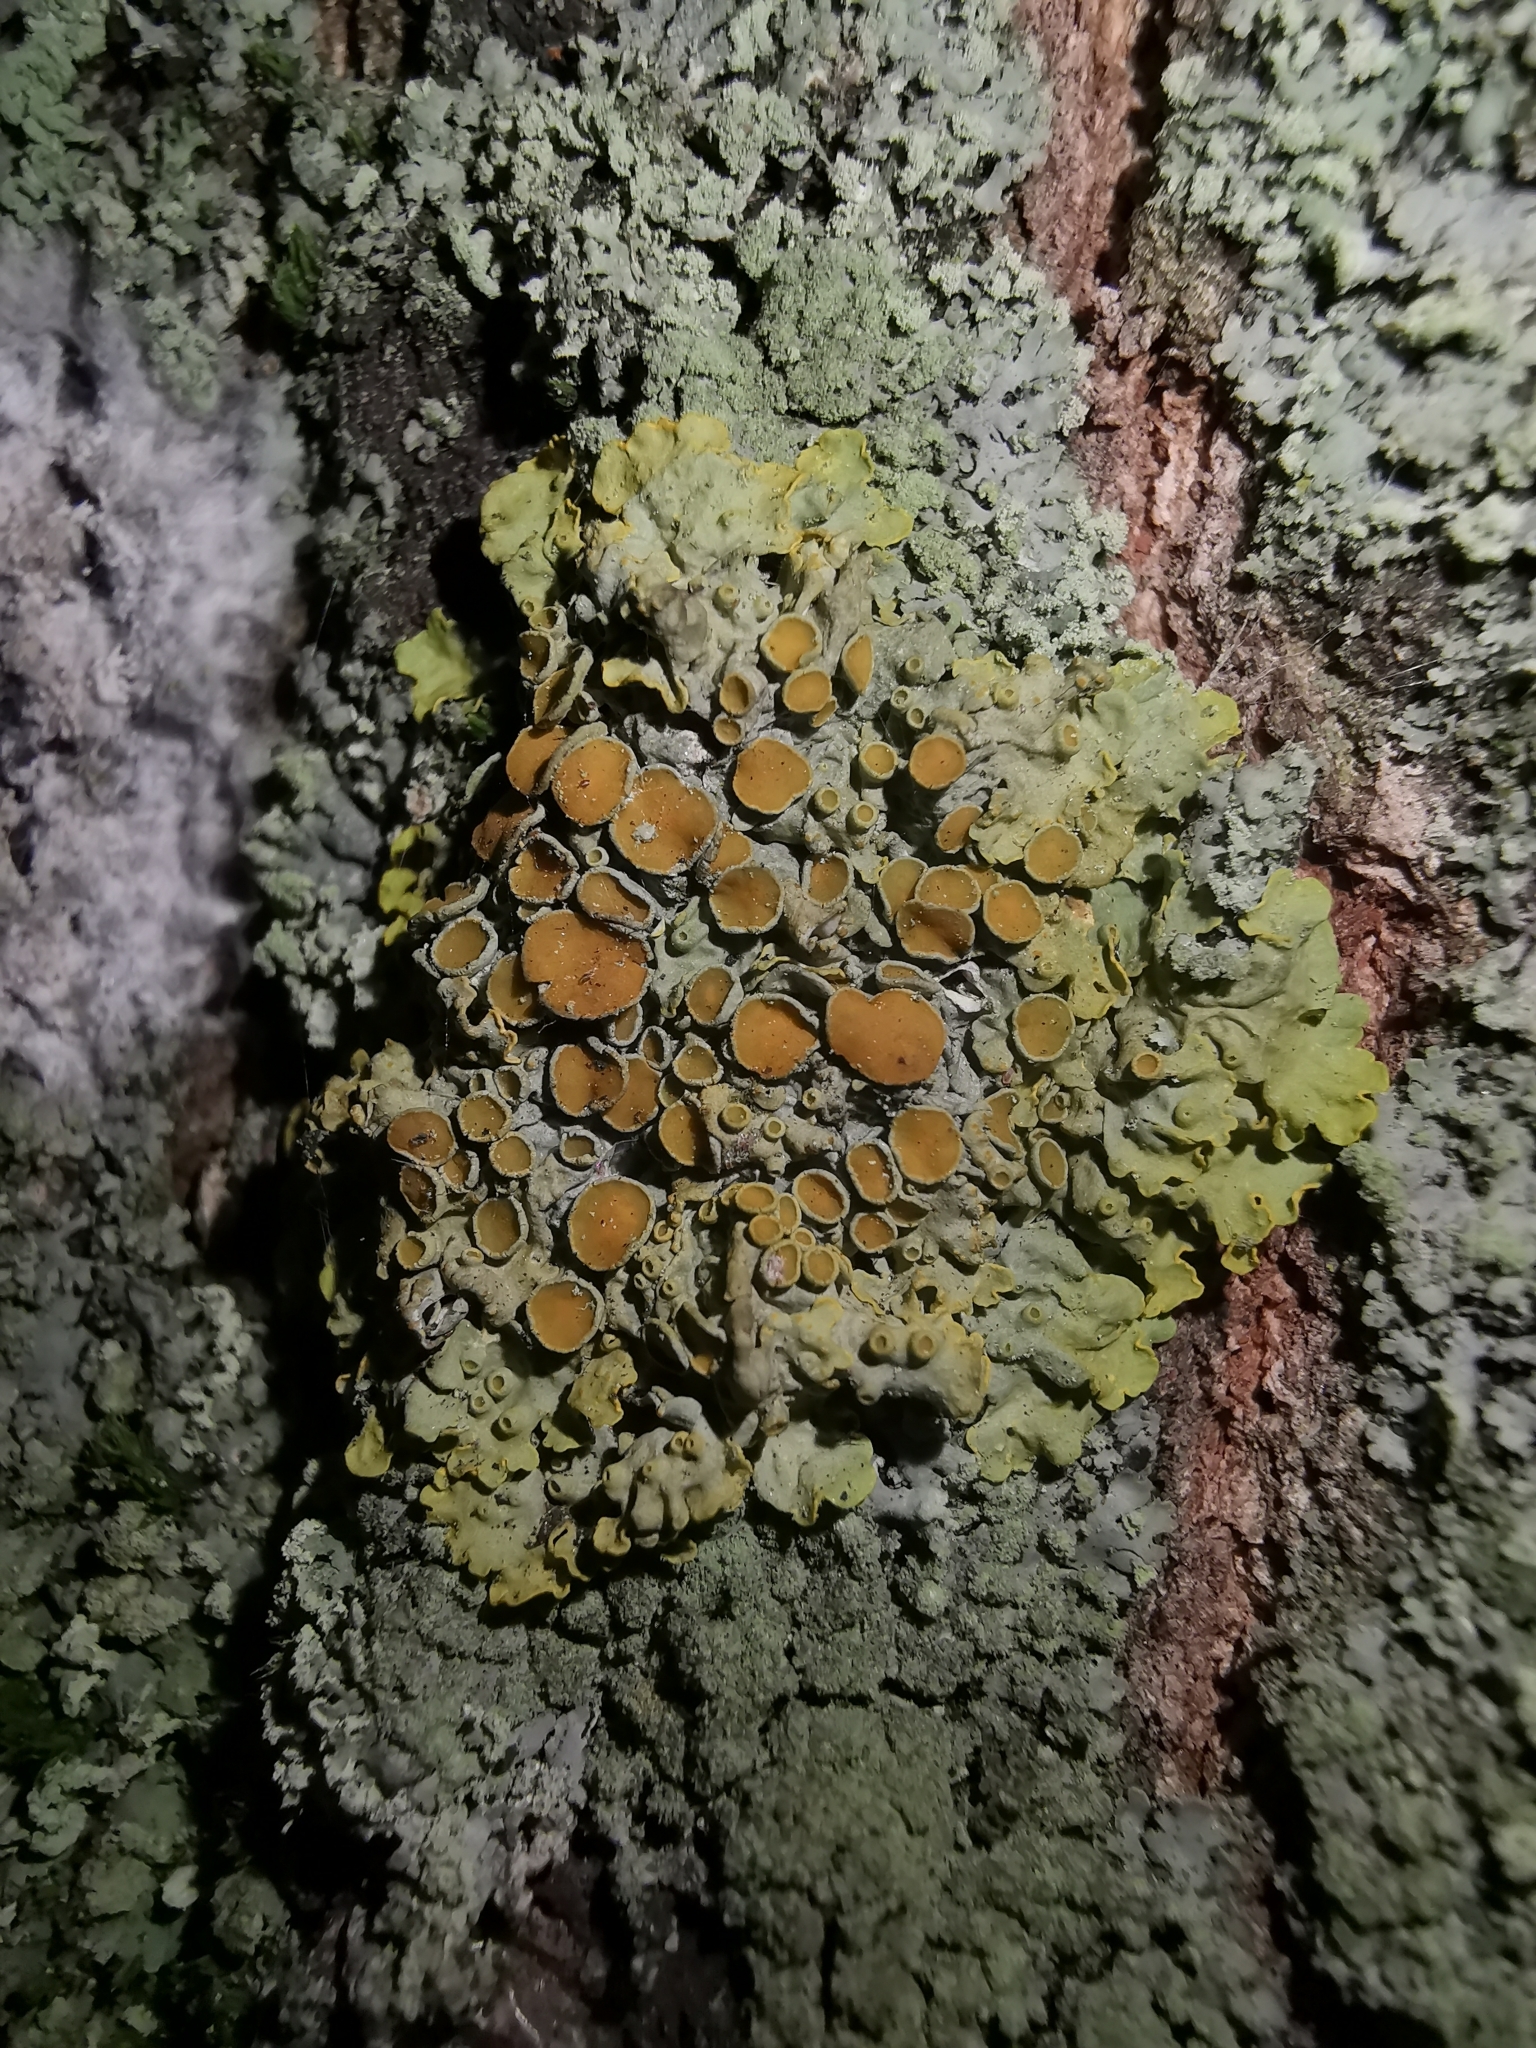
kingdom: Fungi
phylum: Ascomycota
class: Lecanoromycetes
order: Teloschistales
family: Teloschistaceae
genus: Xanthoria
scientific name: Xanthoria parietina
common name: Common orange lichen
